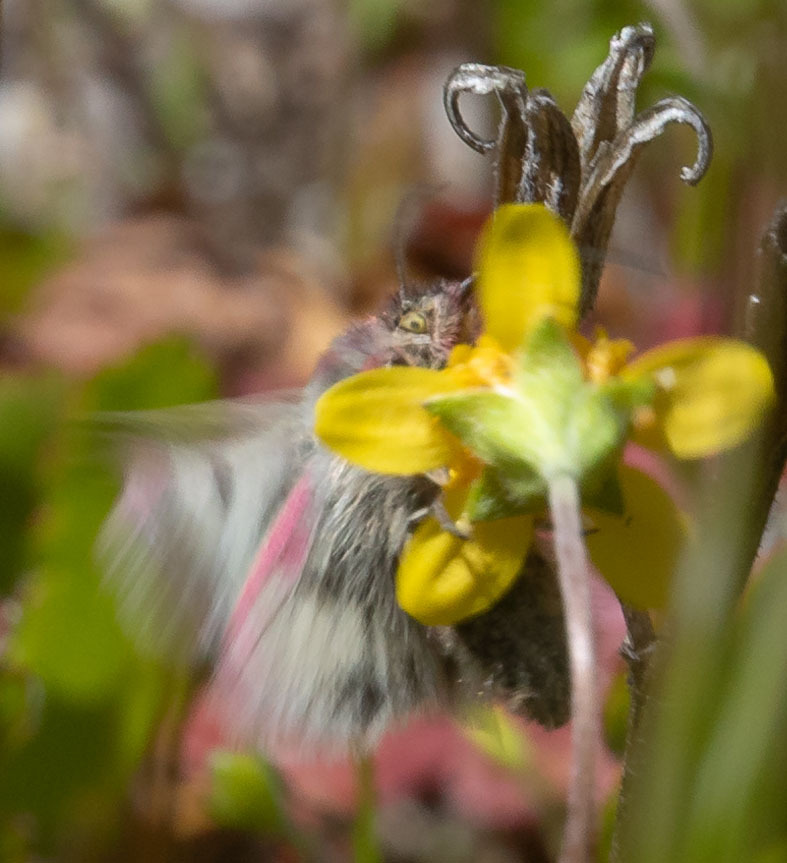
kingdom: Animalia
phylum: Arthropoda
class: Insecta
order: Lepidoptera
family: Noctuidae
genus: Schinia
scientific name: Schinia pulchripennis
